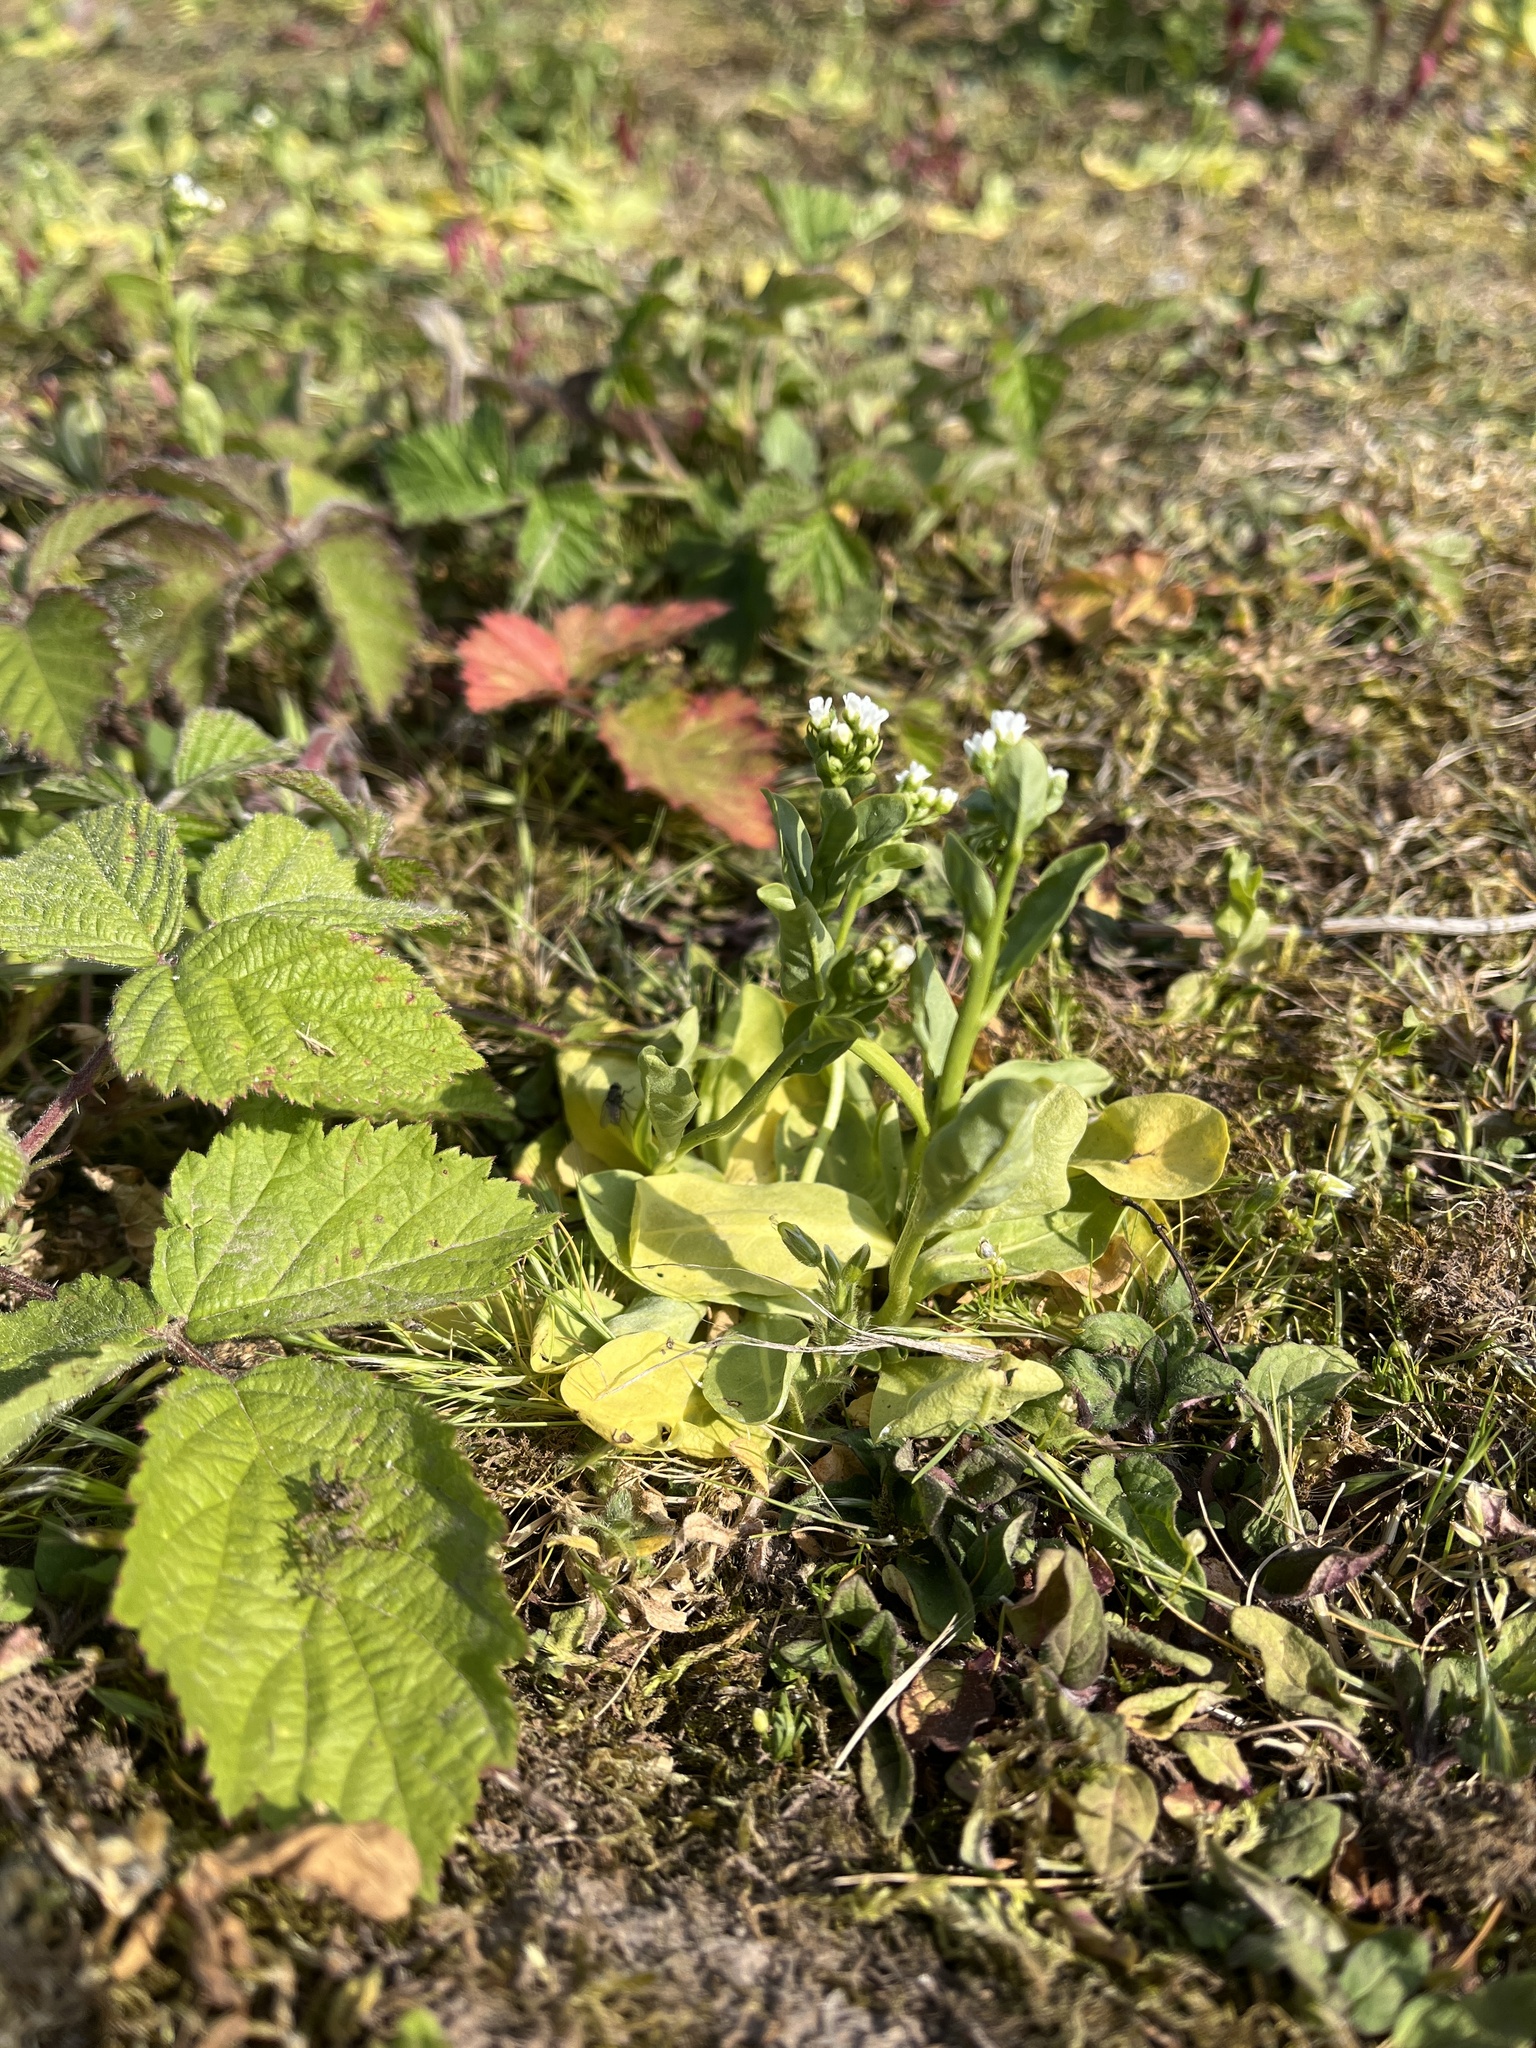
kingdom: Plantae
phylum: Tracheophyta
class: Magnoliopsida
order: Ericales
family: Primulaceae
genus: Samolus
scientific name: Samolus valerandi
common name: Brookweed
